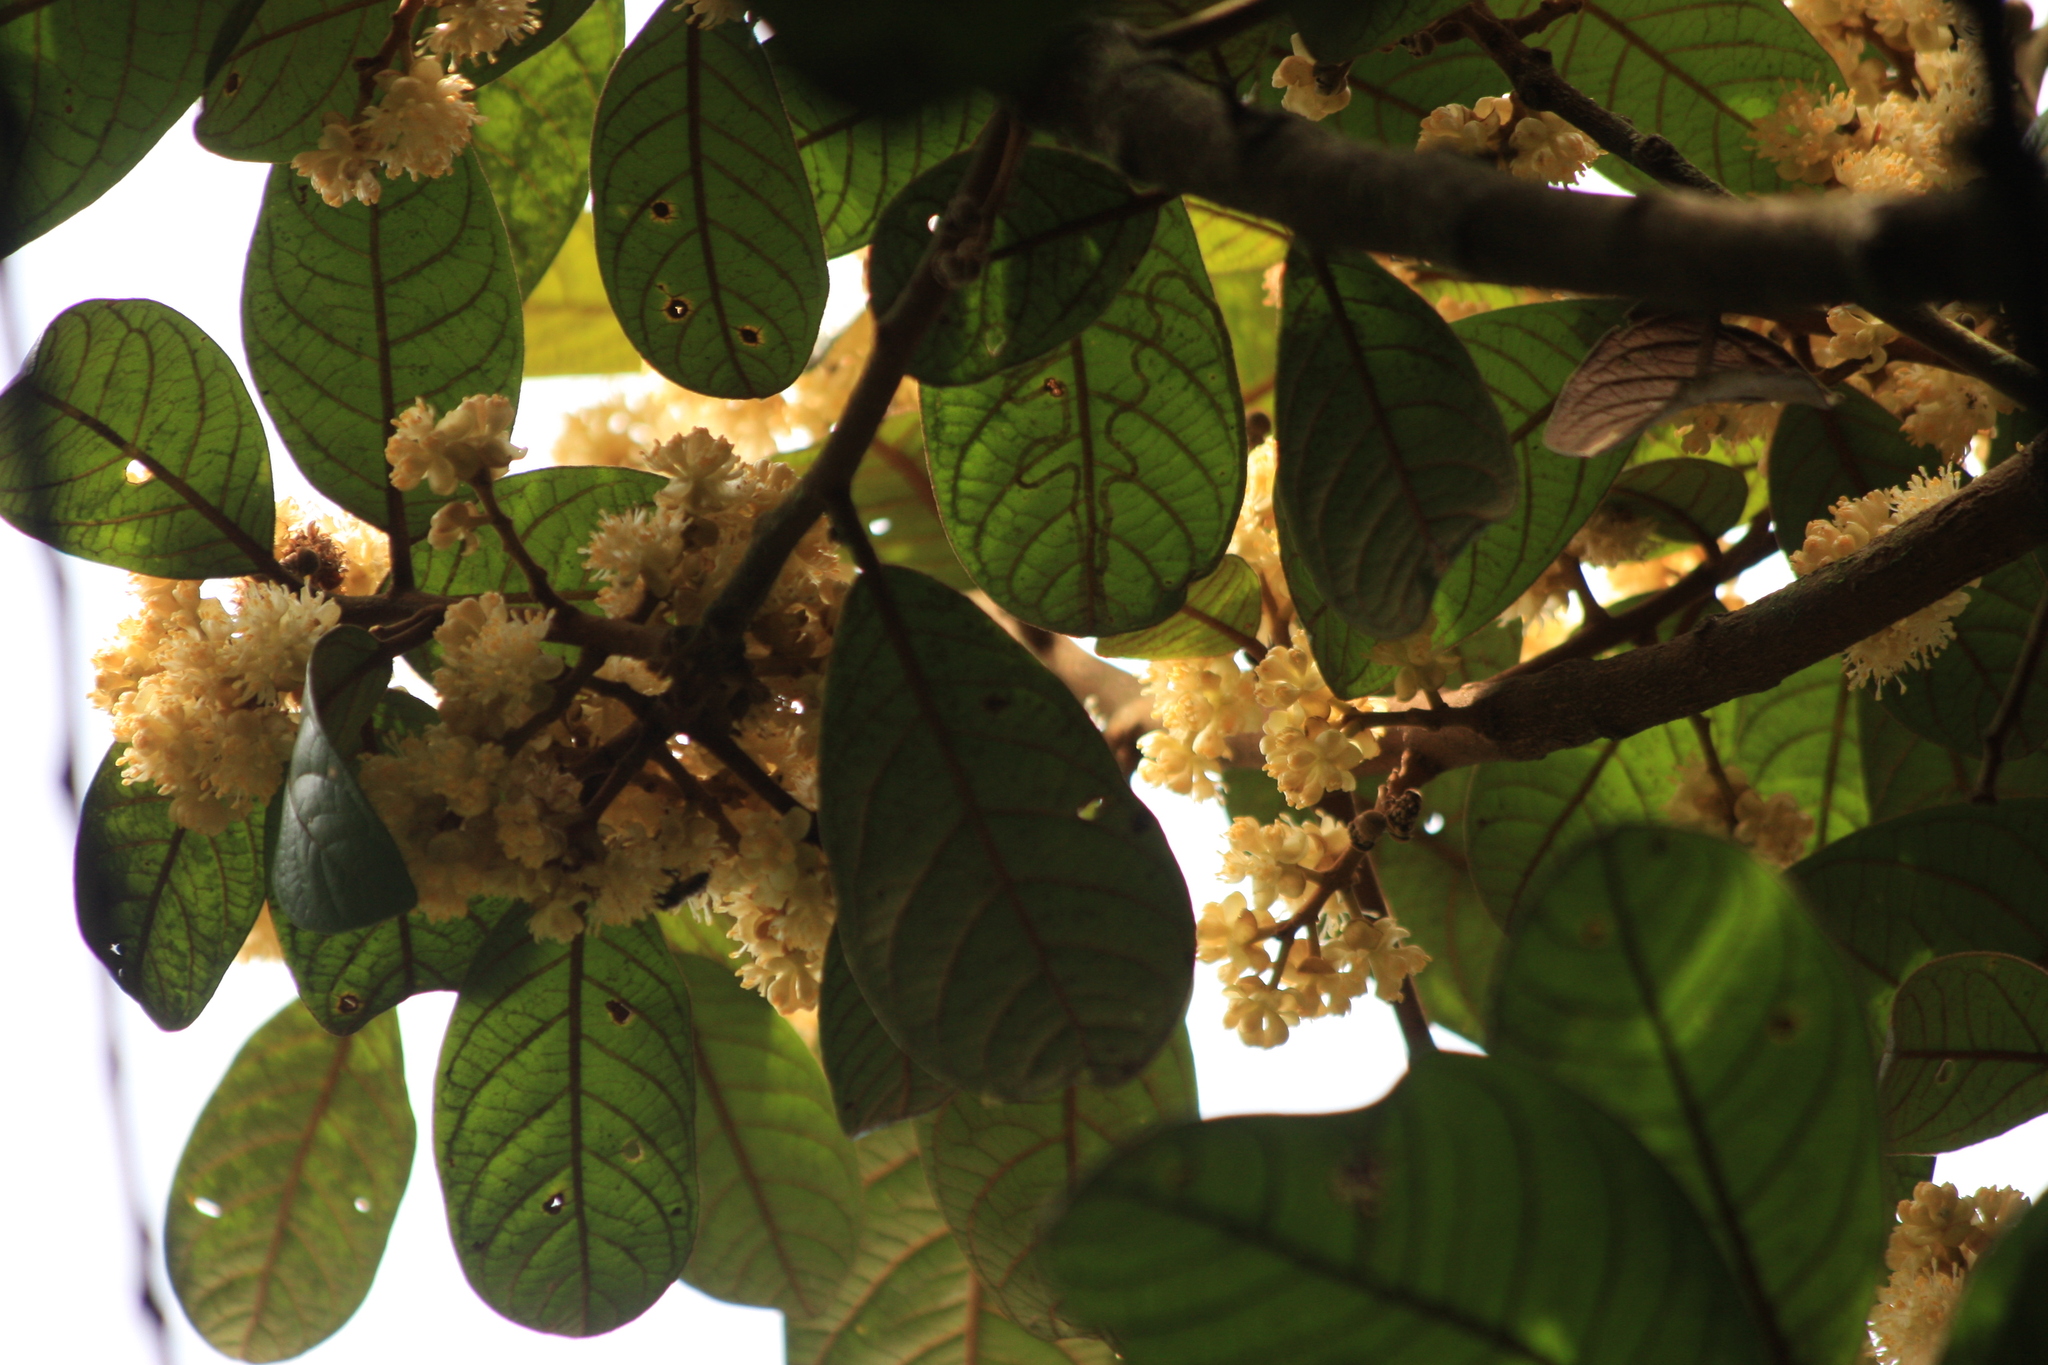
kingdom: Plantae
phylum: Tracheophyta
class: Magnoliopsida
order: Laurales
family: Lauraceae
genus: Litsea
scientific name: Litsea floribunda
